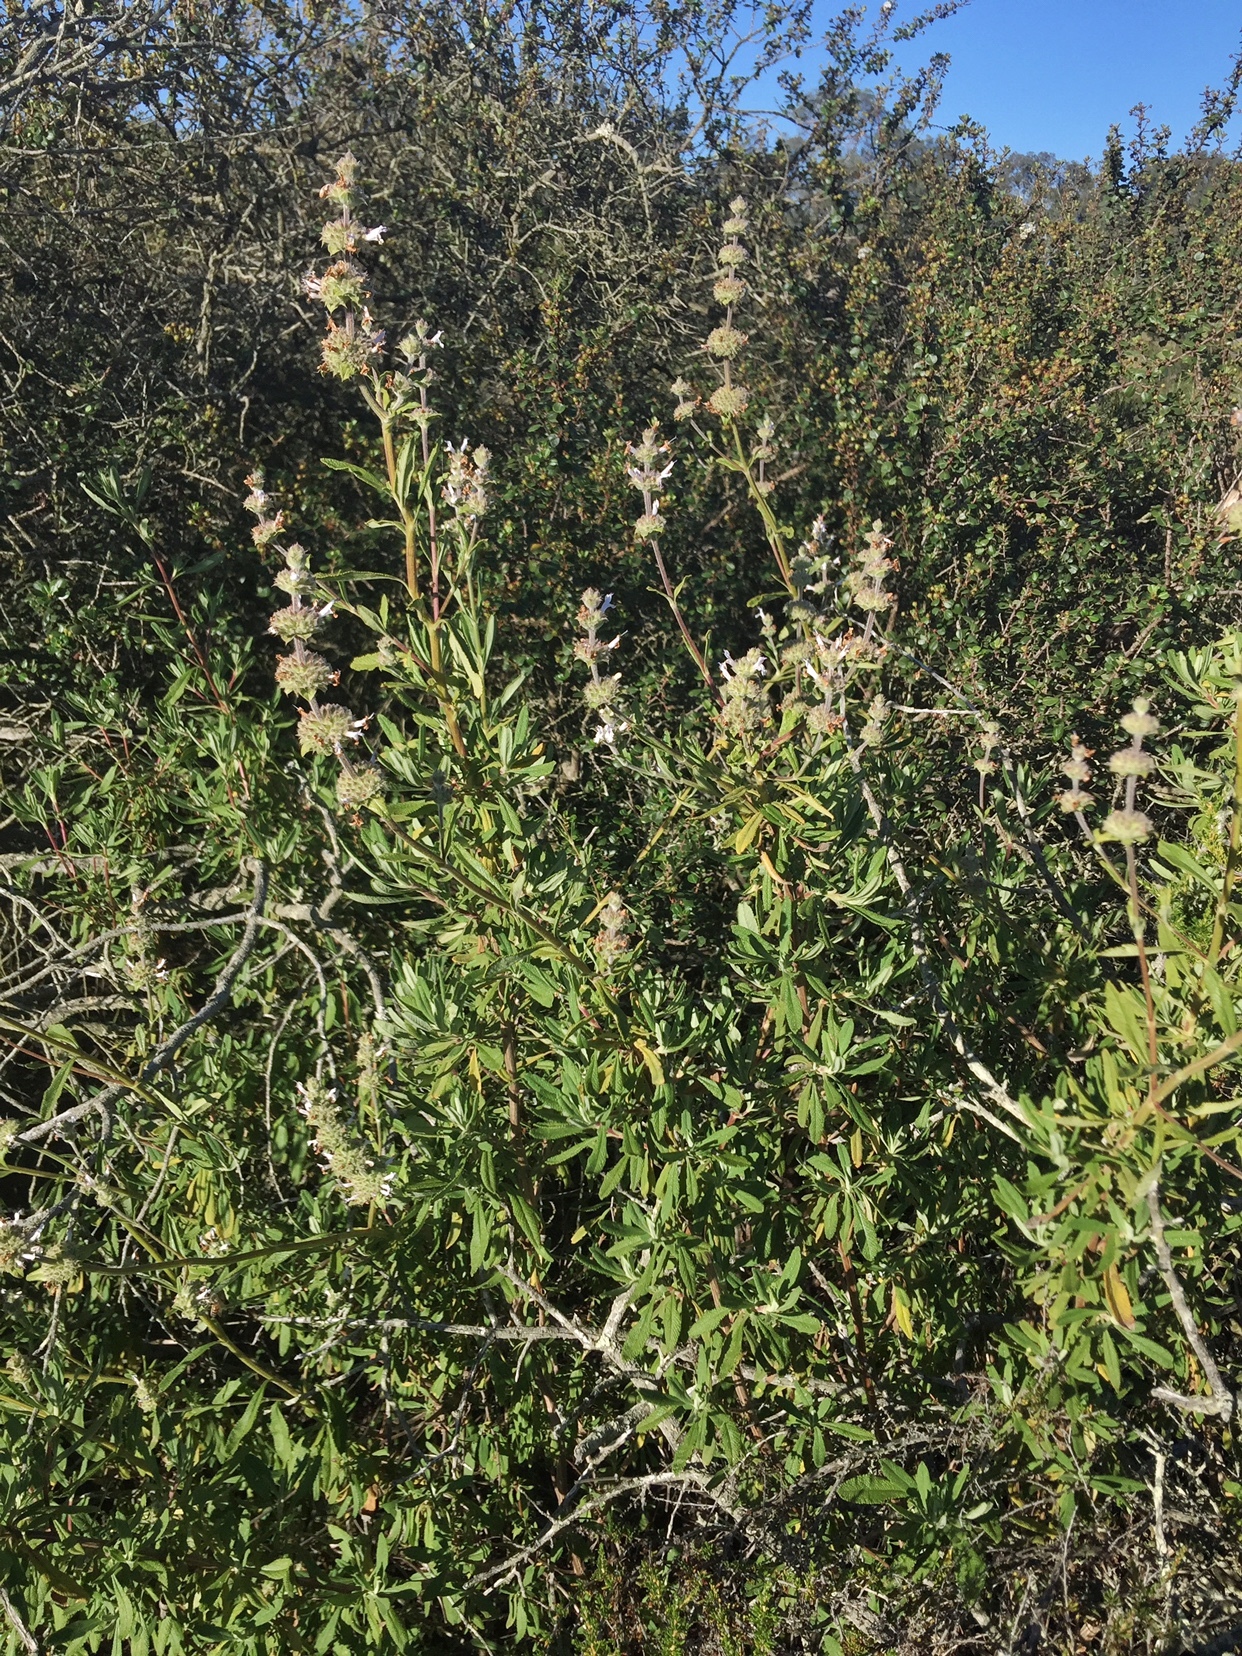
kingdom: Plantae
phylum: Tracheophyta
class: Magnoliopsida
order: Lamiales
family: Lamiaceae
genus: Salvia
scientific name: Salvia mellifera
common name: Black sage
